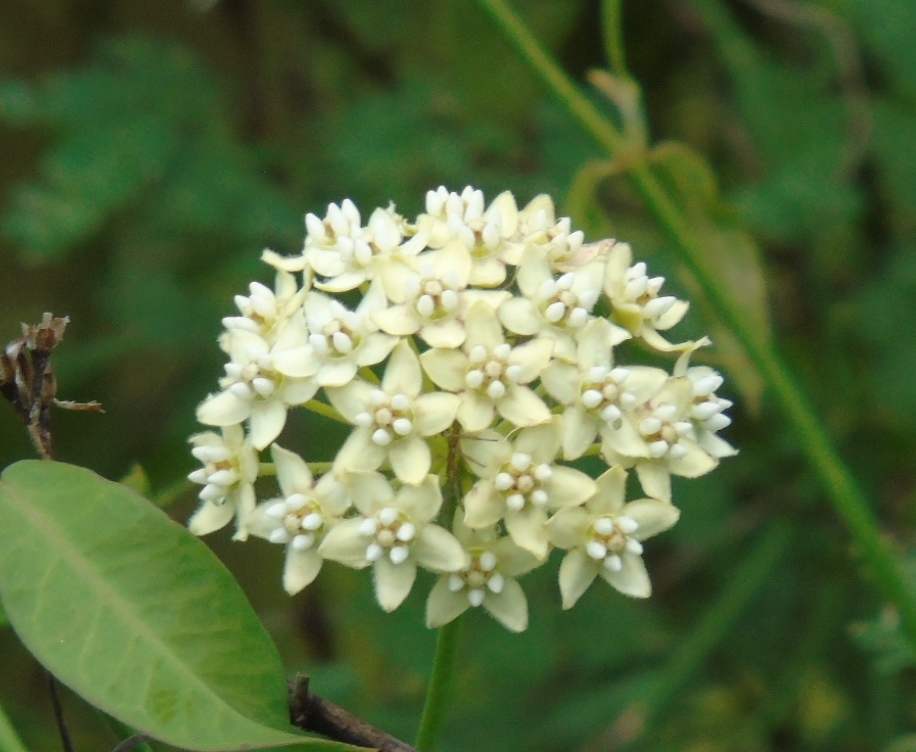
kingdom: Plantae
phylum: Tracheophyta
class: Magnoliopsida
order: Gentianales
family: Apocynaceae
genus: Funastrum
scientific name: Funastrum clausum
